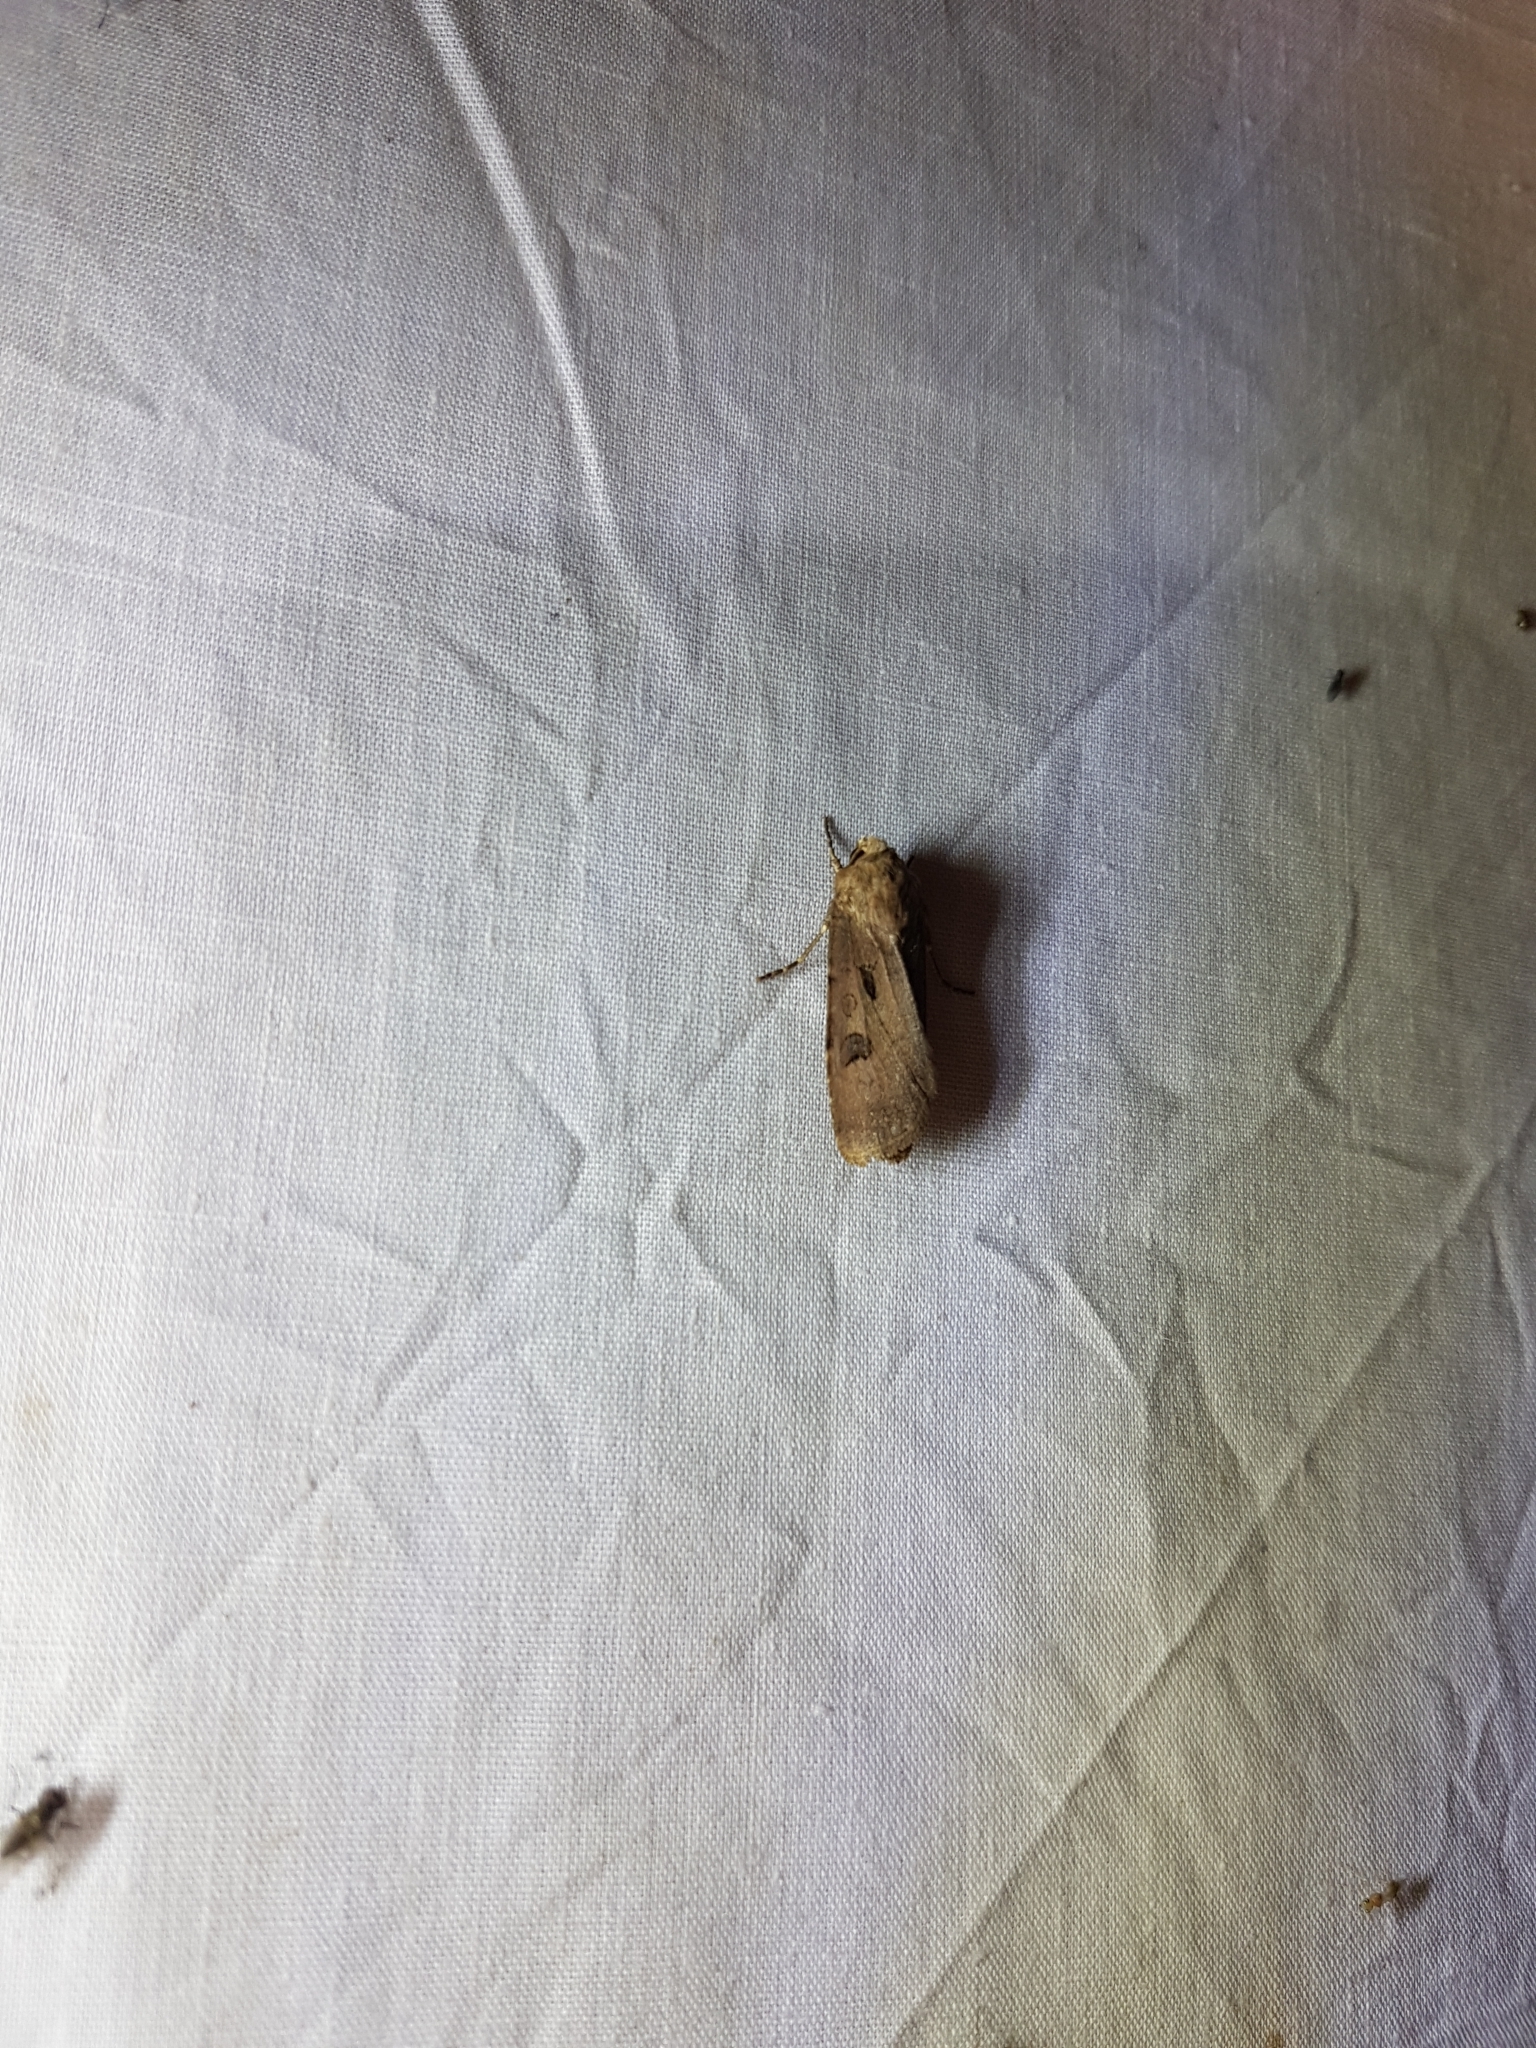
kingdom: Animalia
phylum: Arthropoda
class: Insecta
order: Lepidoptera
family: Noctuidae
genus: Agrotis
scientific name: Agrotis exclamationis
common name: Heart and dart
